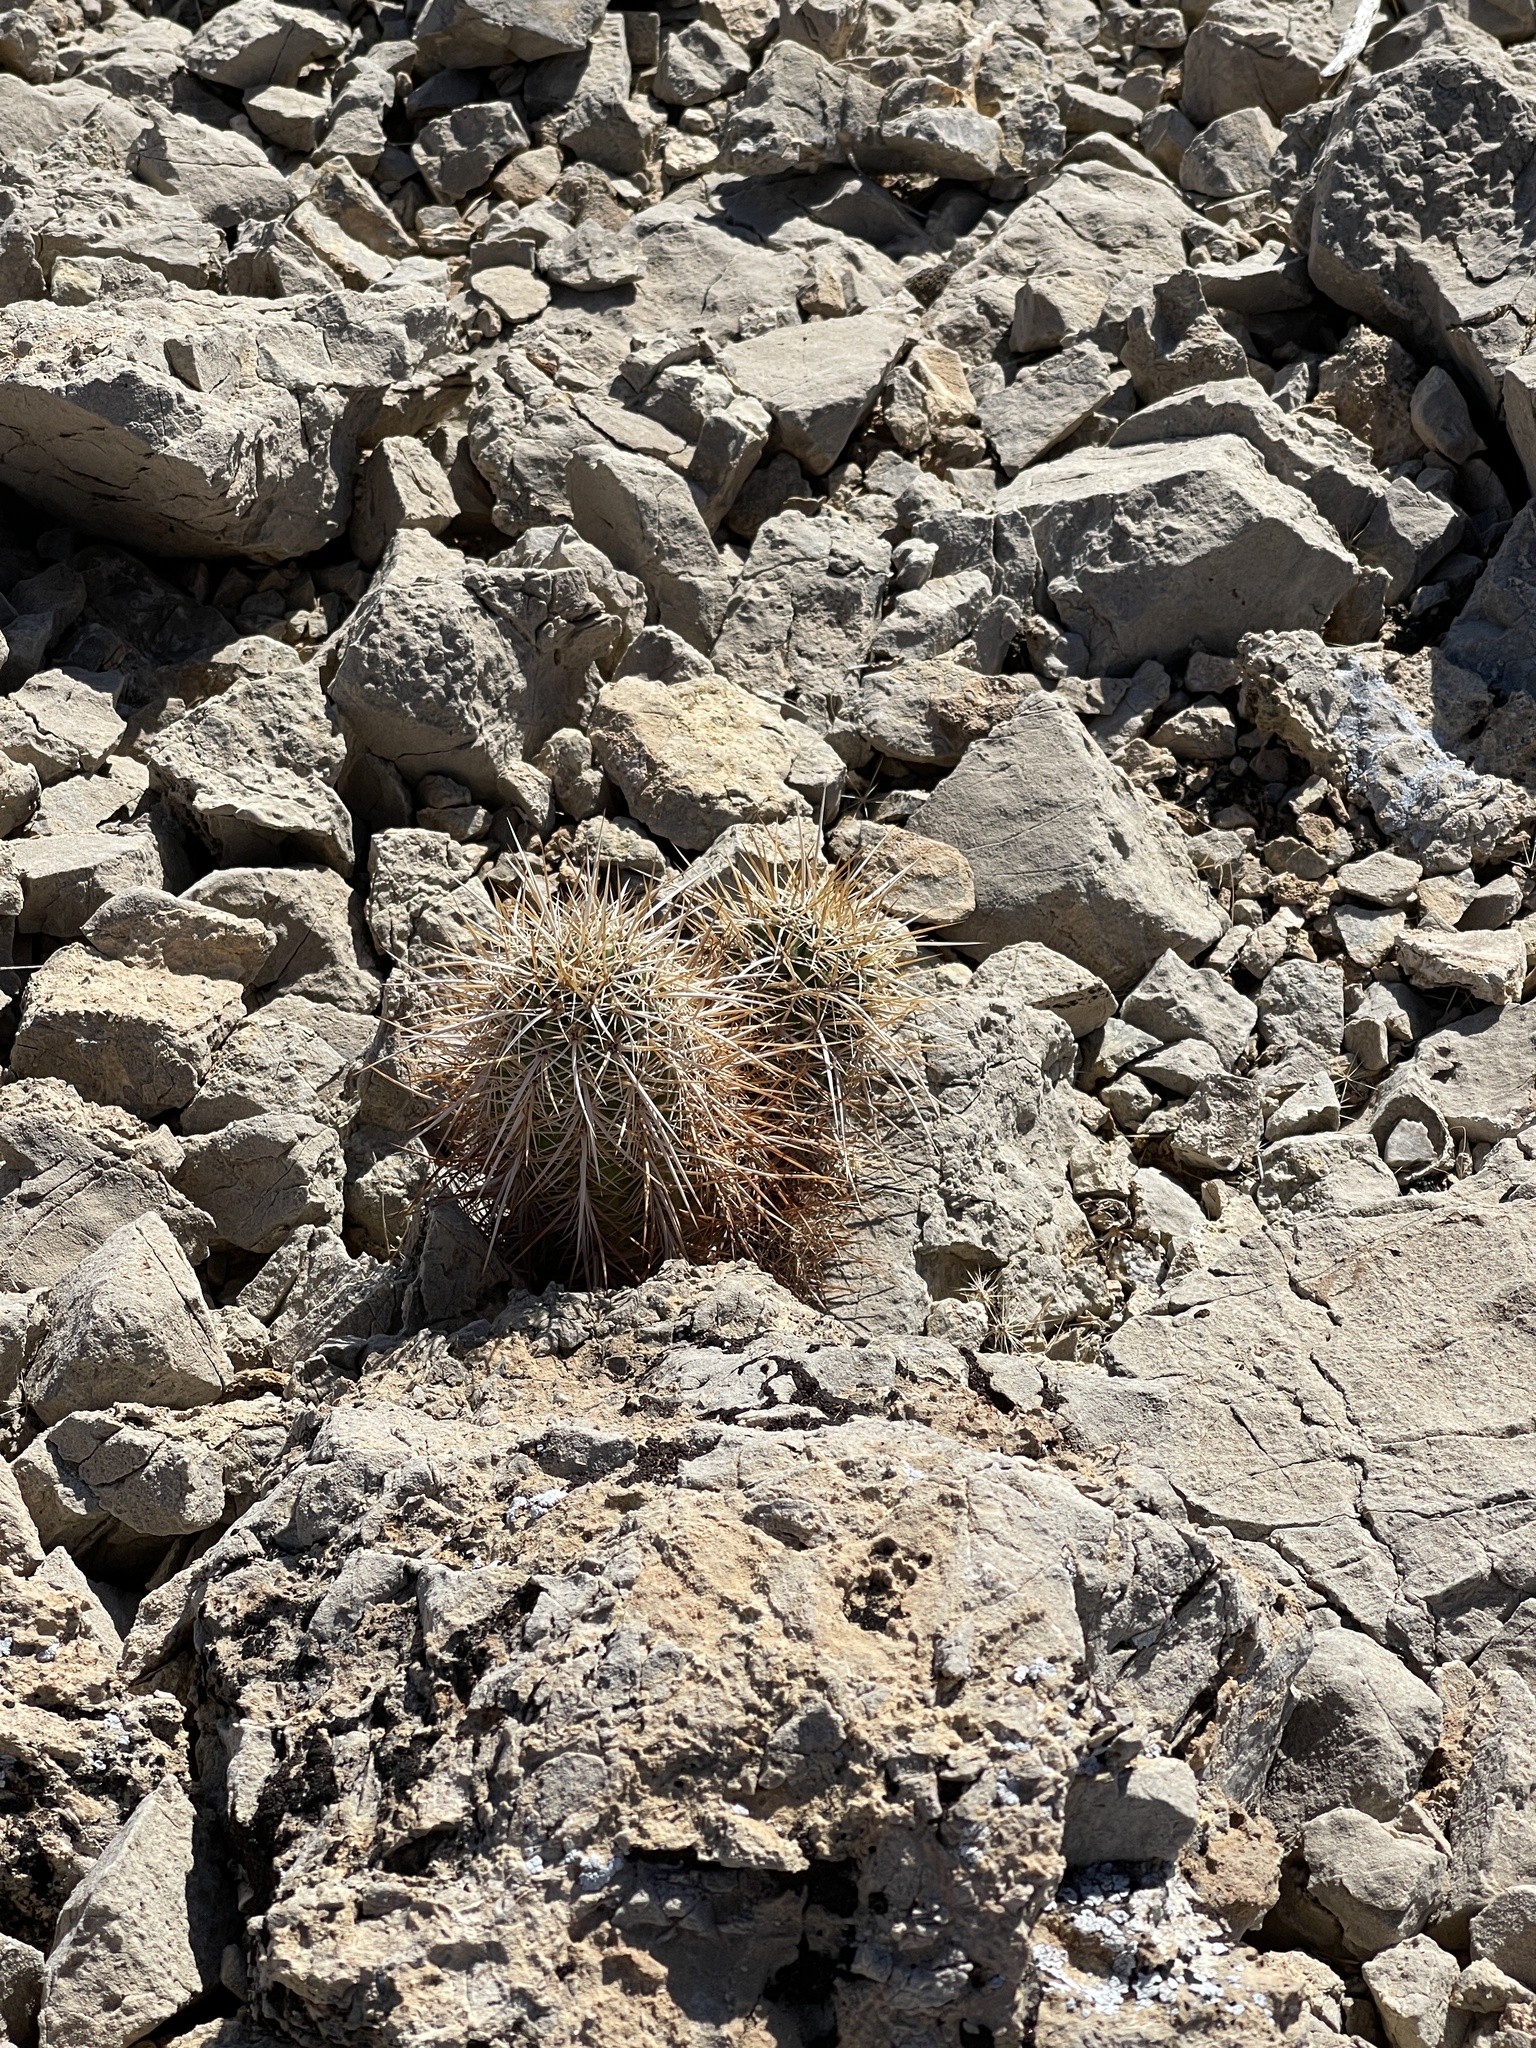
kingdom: Plantae
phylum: Tracheophyta
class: Magnoliopsida
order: Caryophyllales
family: Cactaceae
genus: Echinocereus
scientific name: Echinocereus engelmannii
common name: Engelmann's hedgehog cactus
